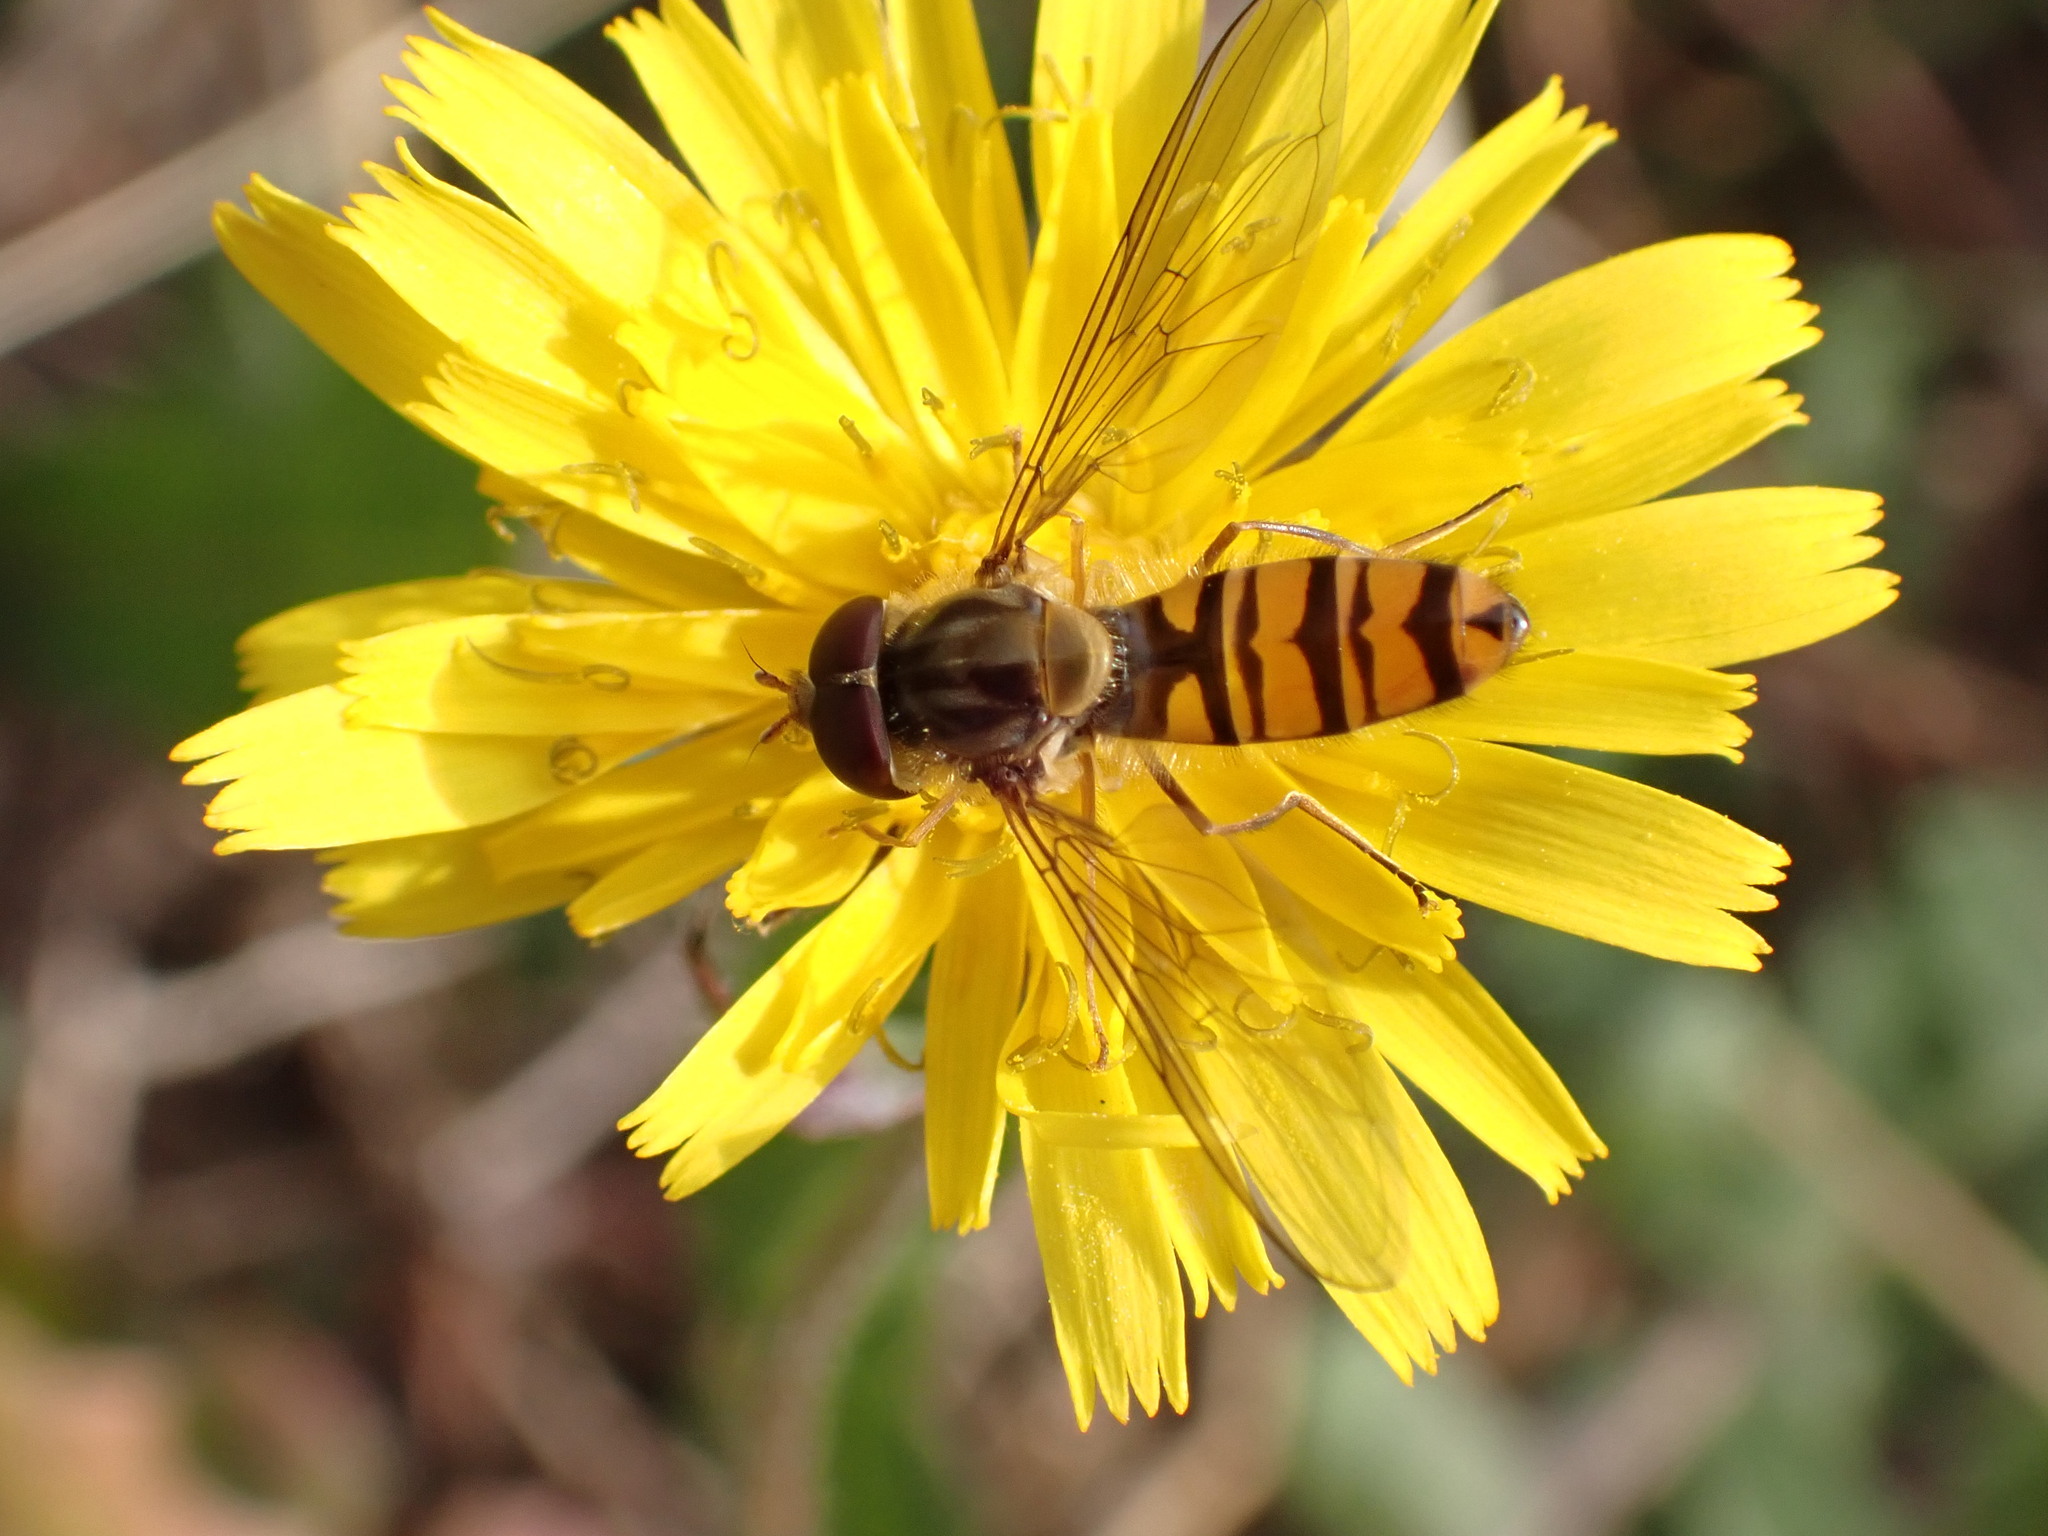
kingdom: Animalia
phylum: Arthropoda
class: Insecta
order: Diptera
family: Syrphidae
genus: Episyrphus
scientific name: Episyrphus balteatus
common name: Marmalade hoverfly
